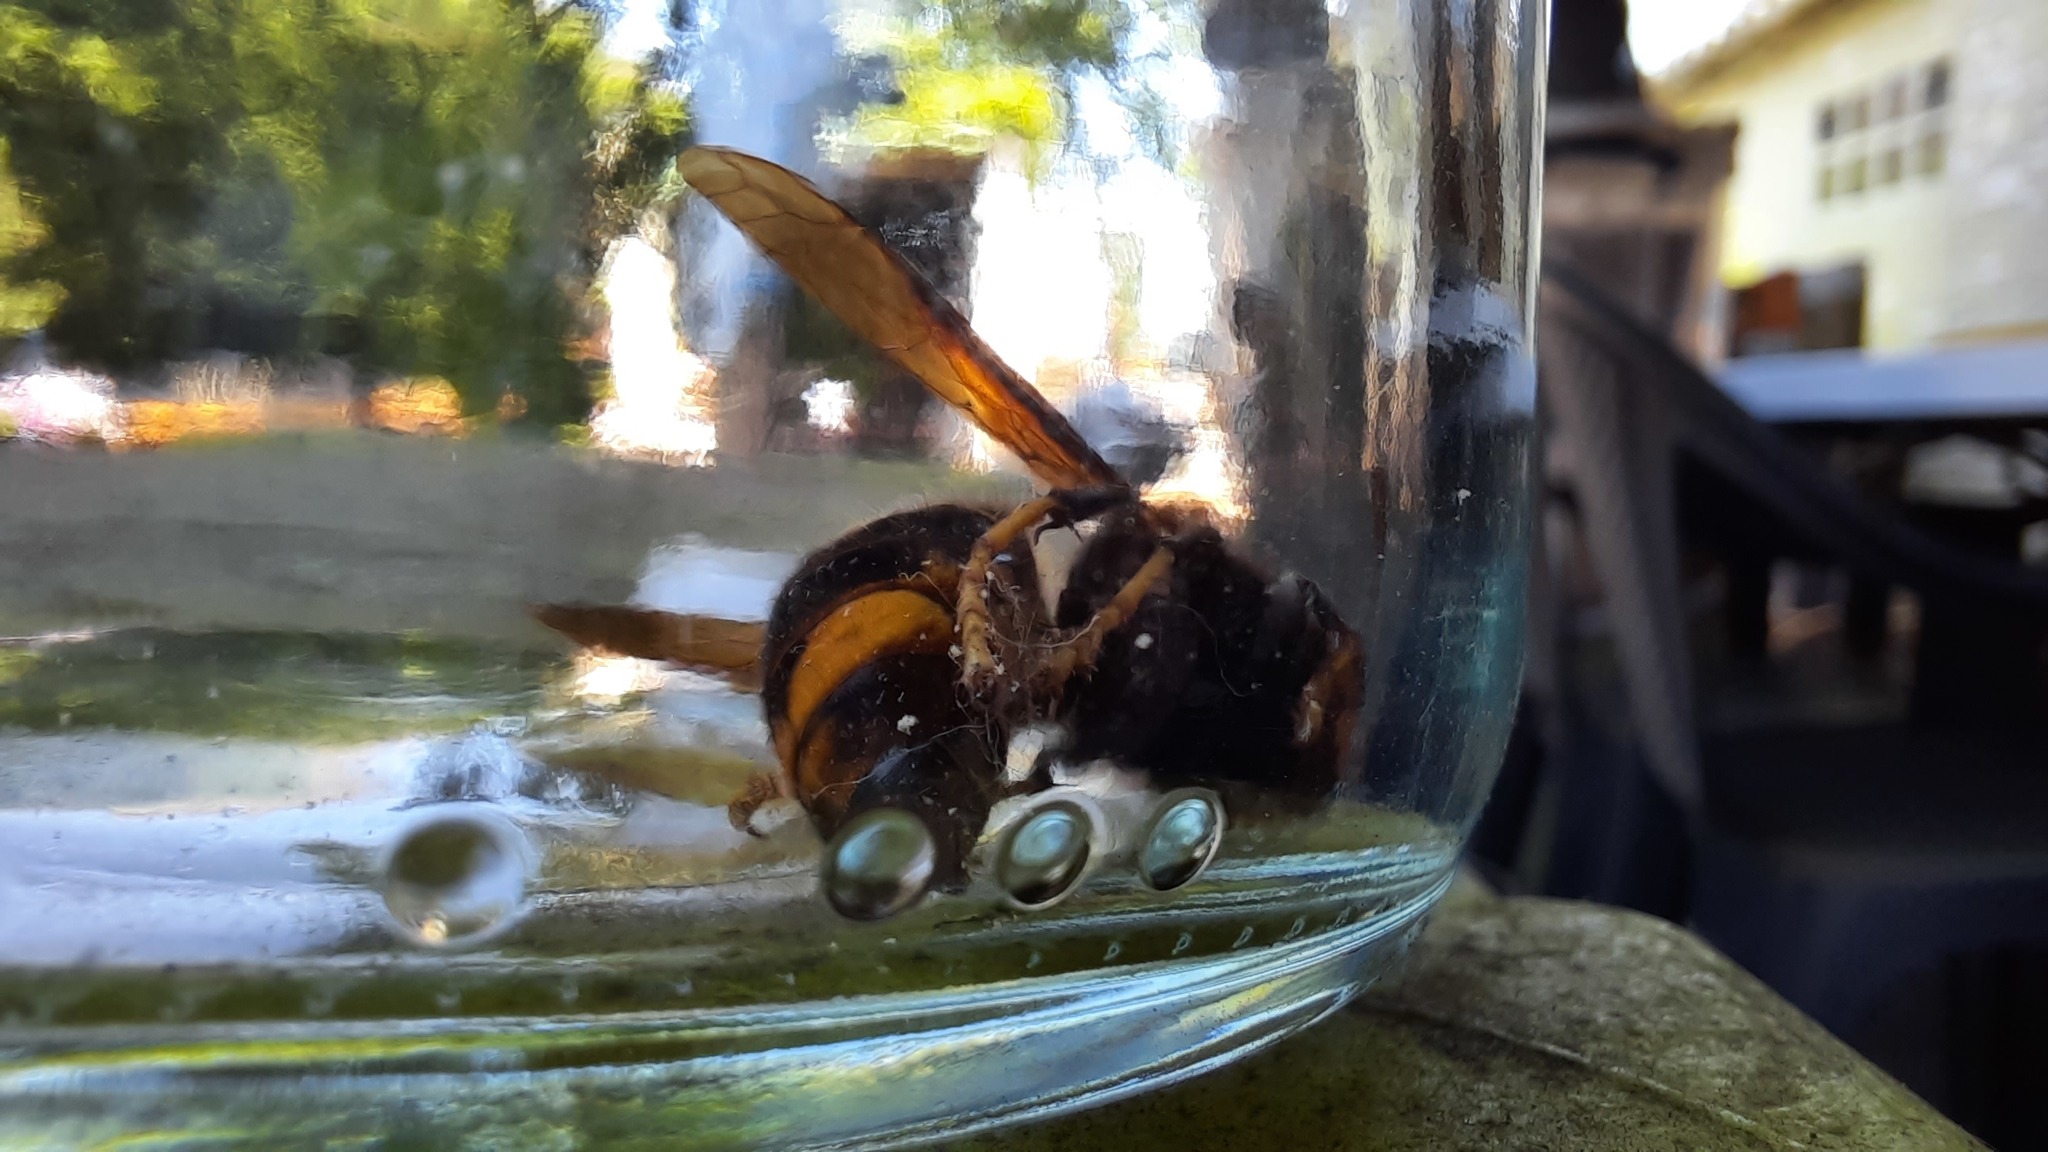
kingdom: Animalia
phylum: Arthropoda
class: Insecta
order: Hymenoptera
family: Vespidae
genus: Vespa
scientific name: Vespa velutina
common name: Asian hornet
